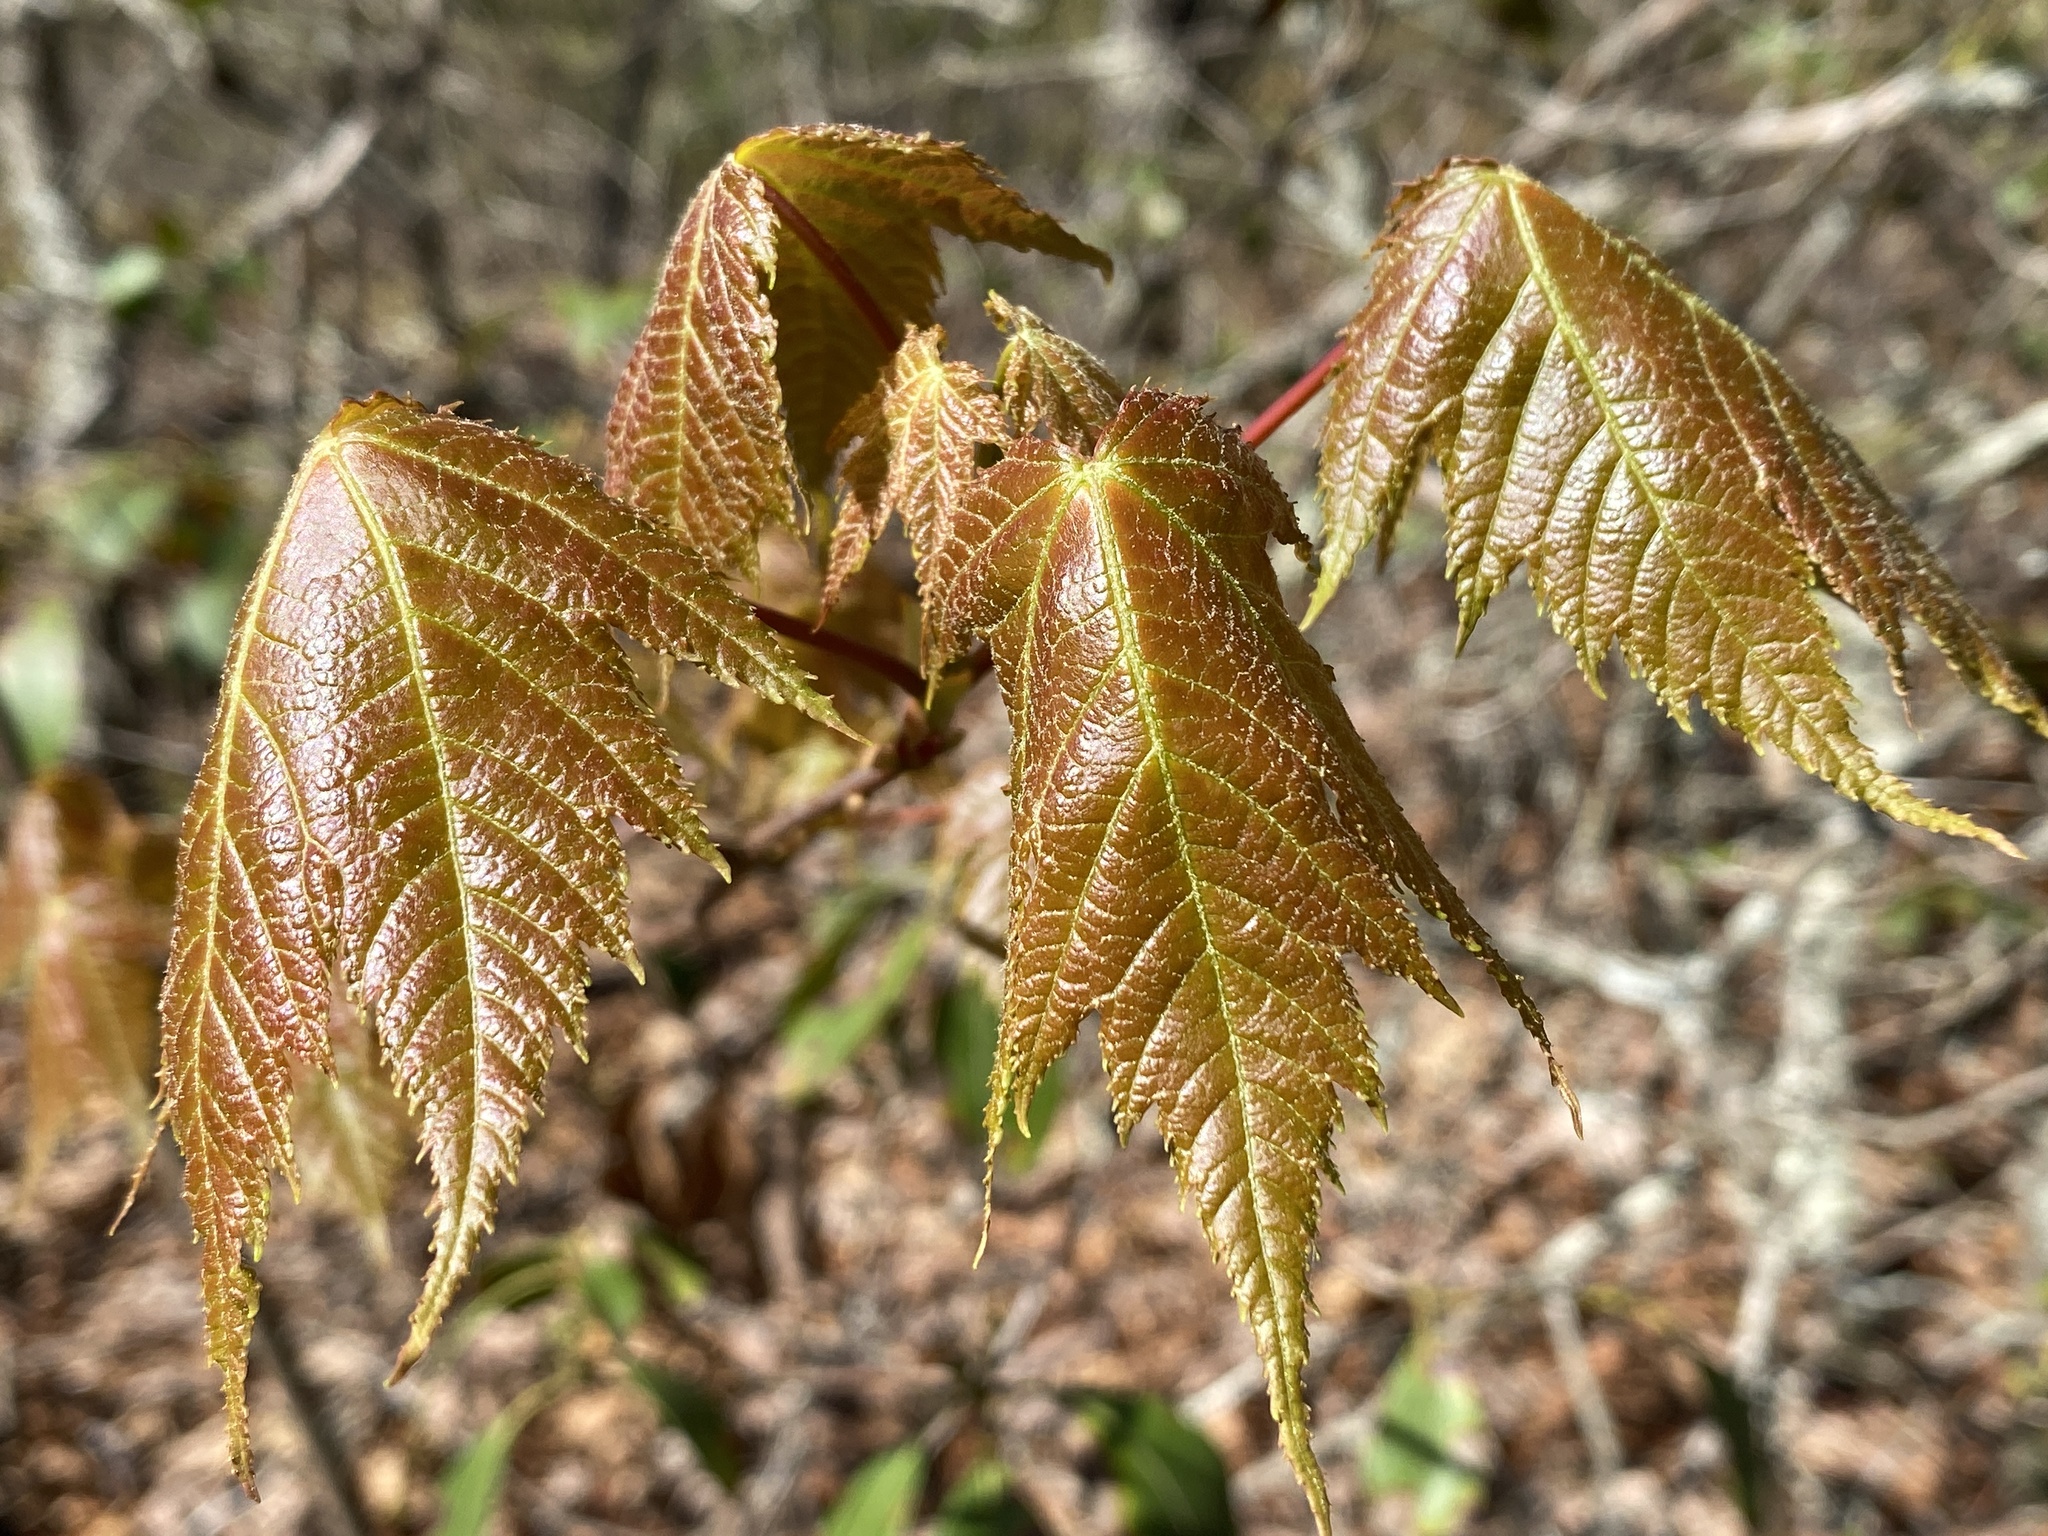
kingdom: Plantae
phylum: Tracheophyta
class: Magnoliopsida
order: Sapindales
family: Sapindaceae
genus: Acer
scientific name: Acer rubrum
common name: Red maple
